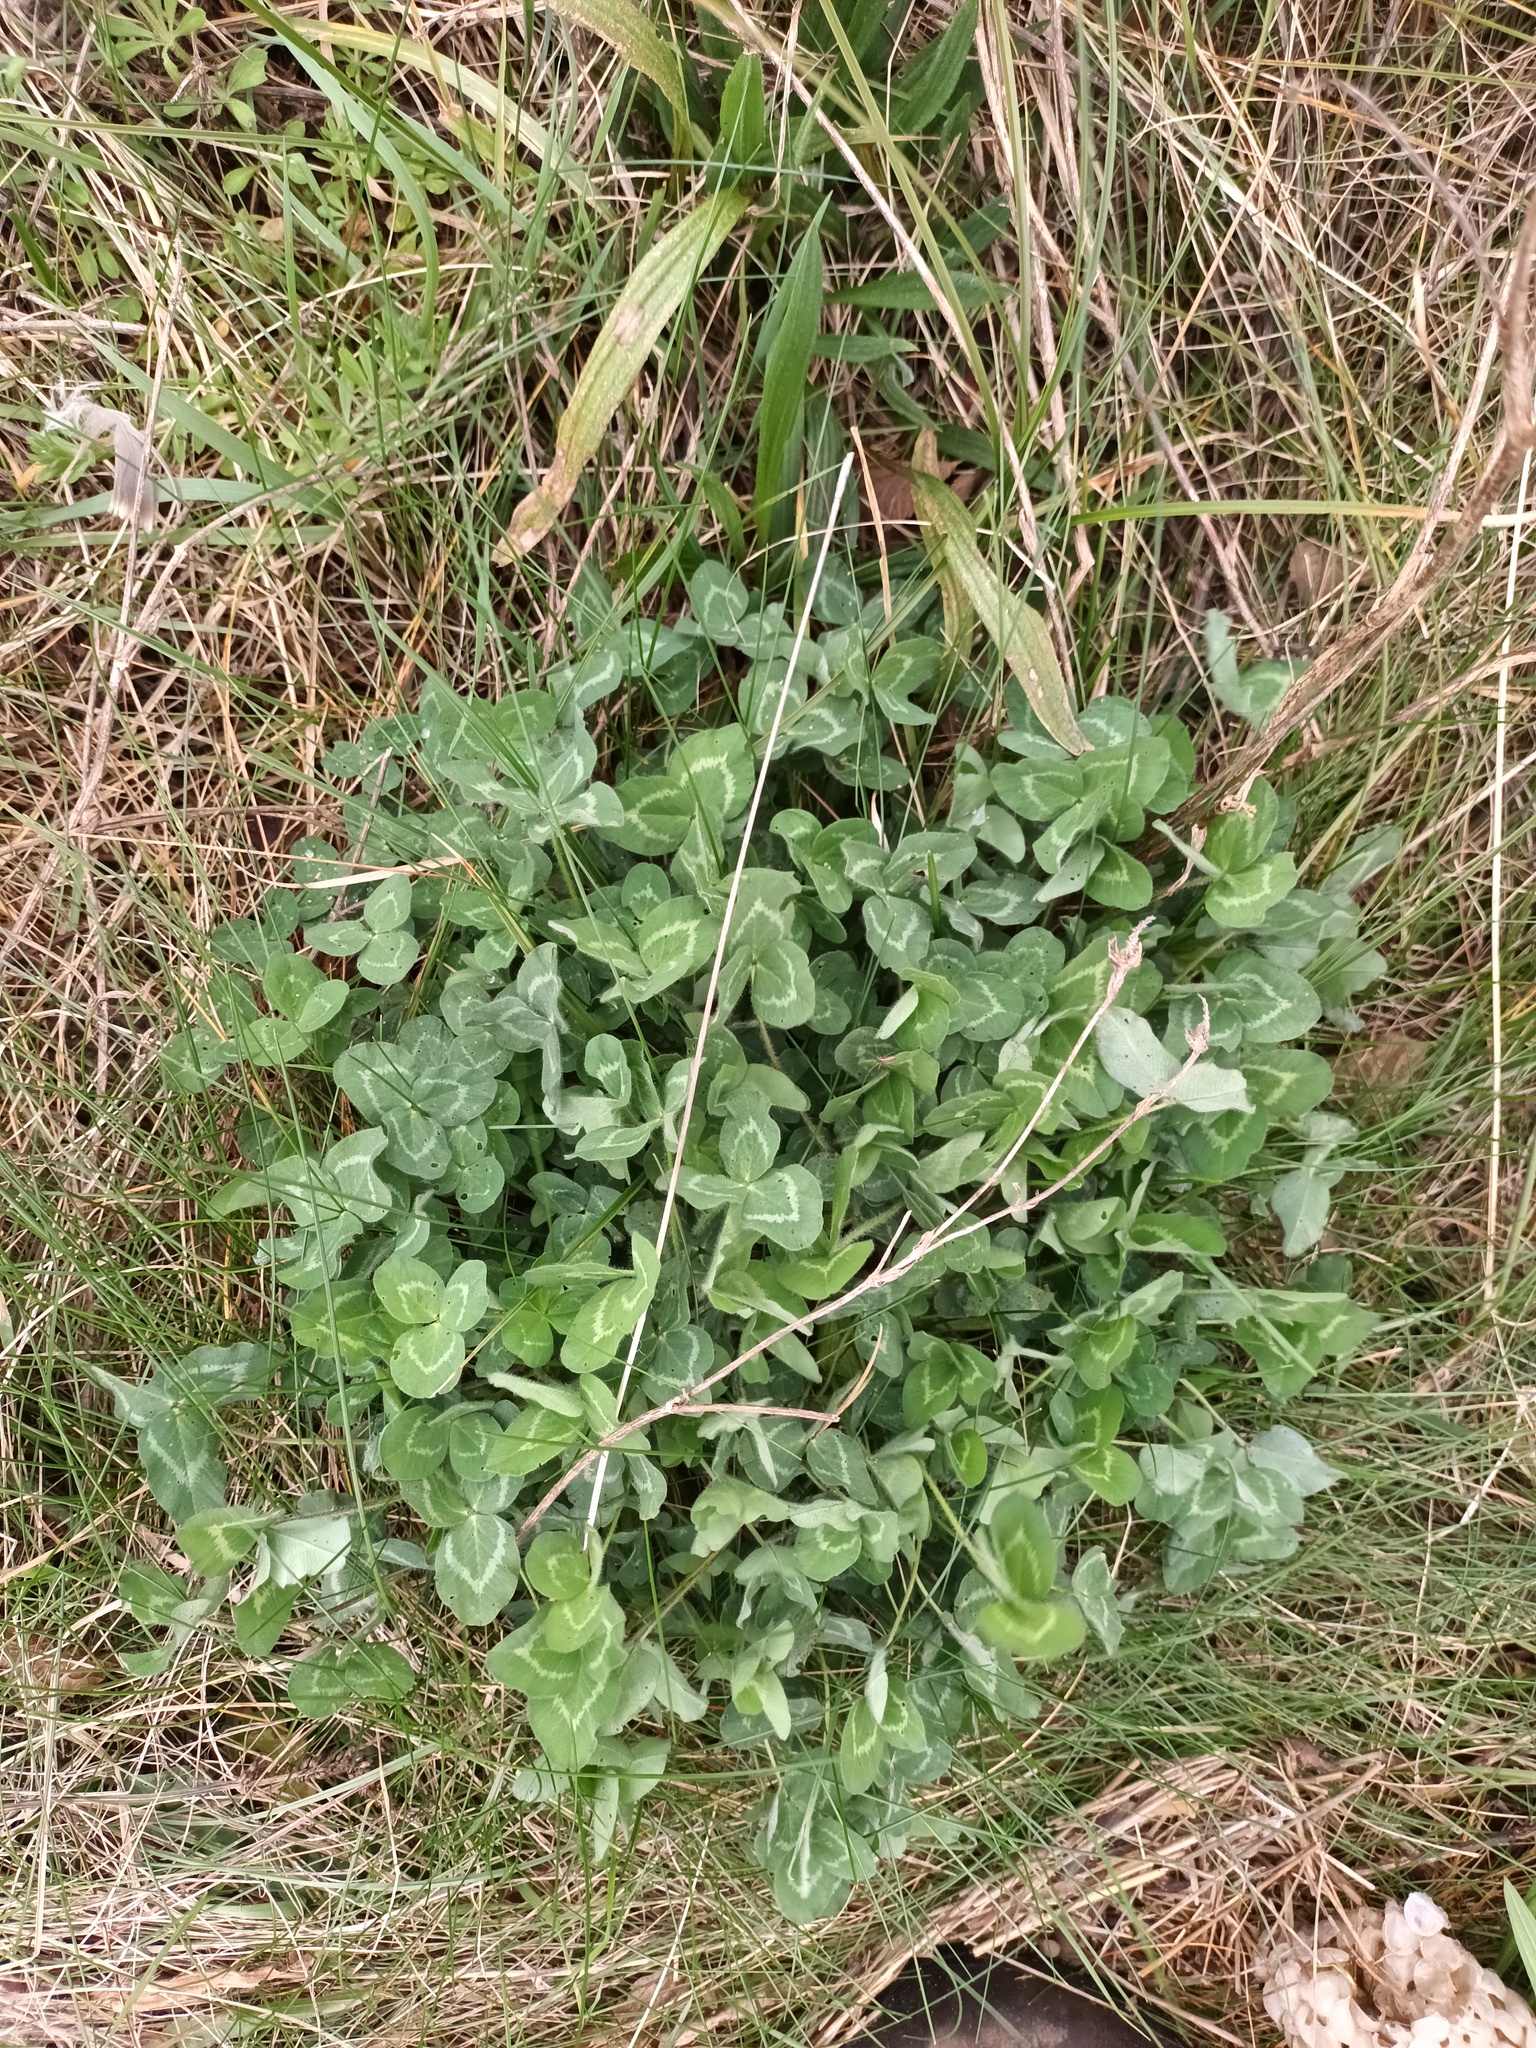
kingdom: Plantae
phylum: Tracheophyta
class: Magnoliopsida
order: Fabales
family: Fabaceae
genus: Trifolium
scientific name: Trifolium pratense
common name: Red clover
